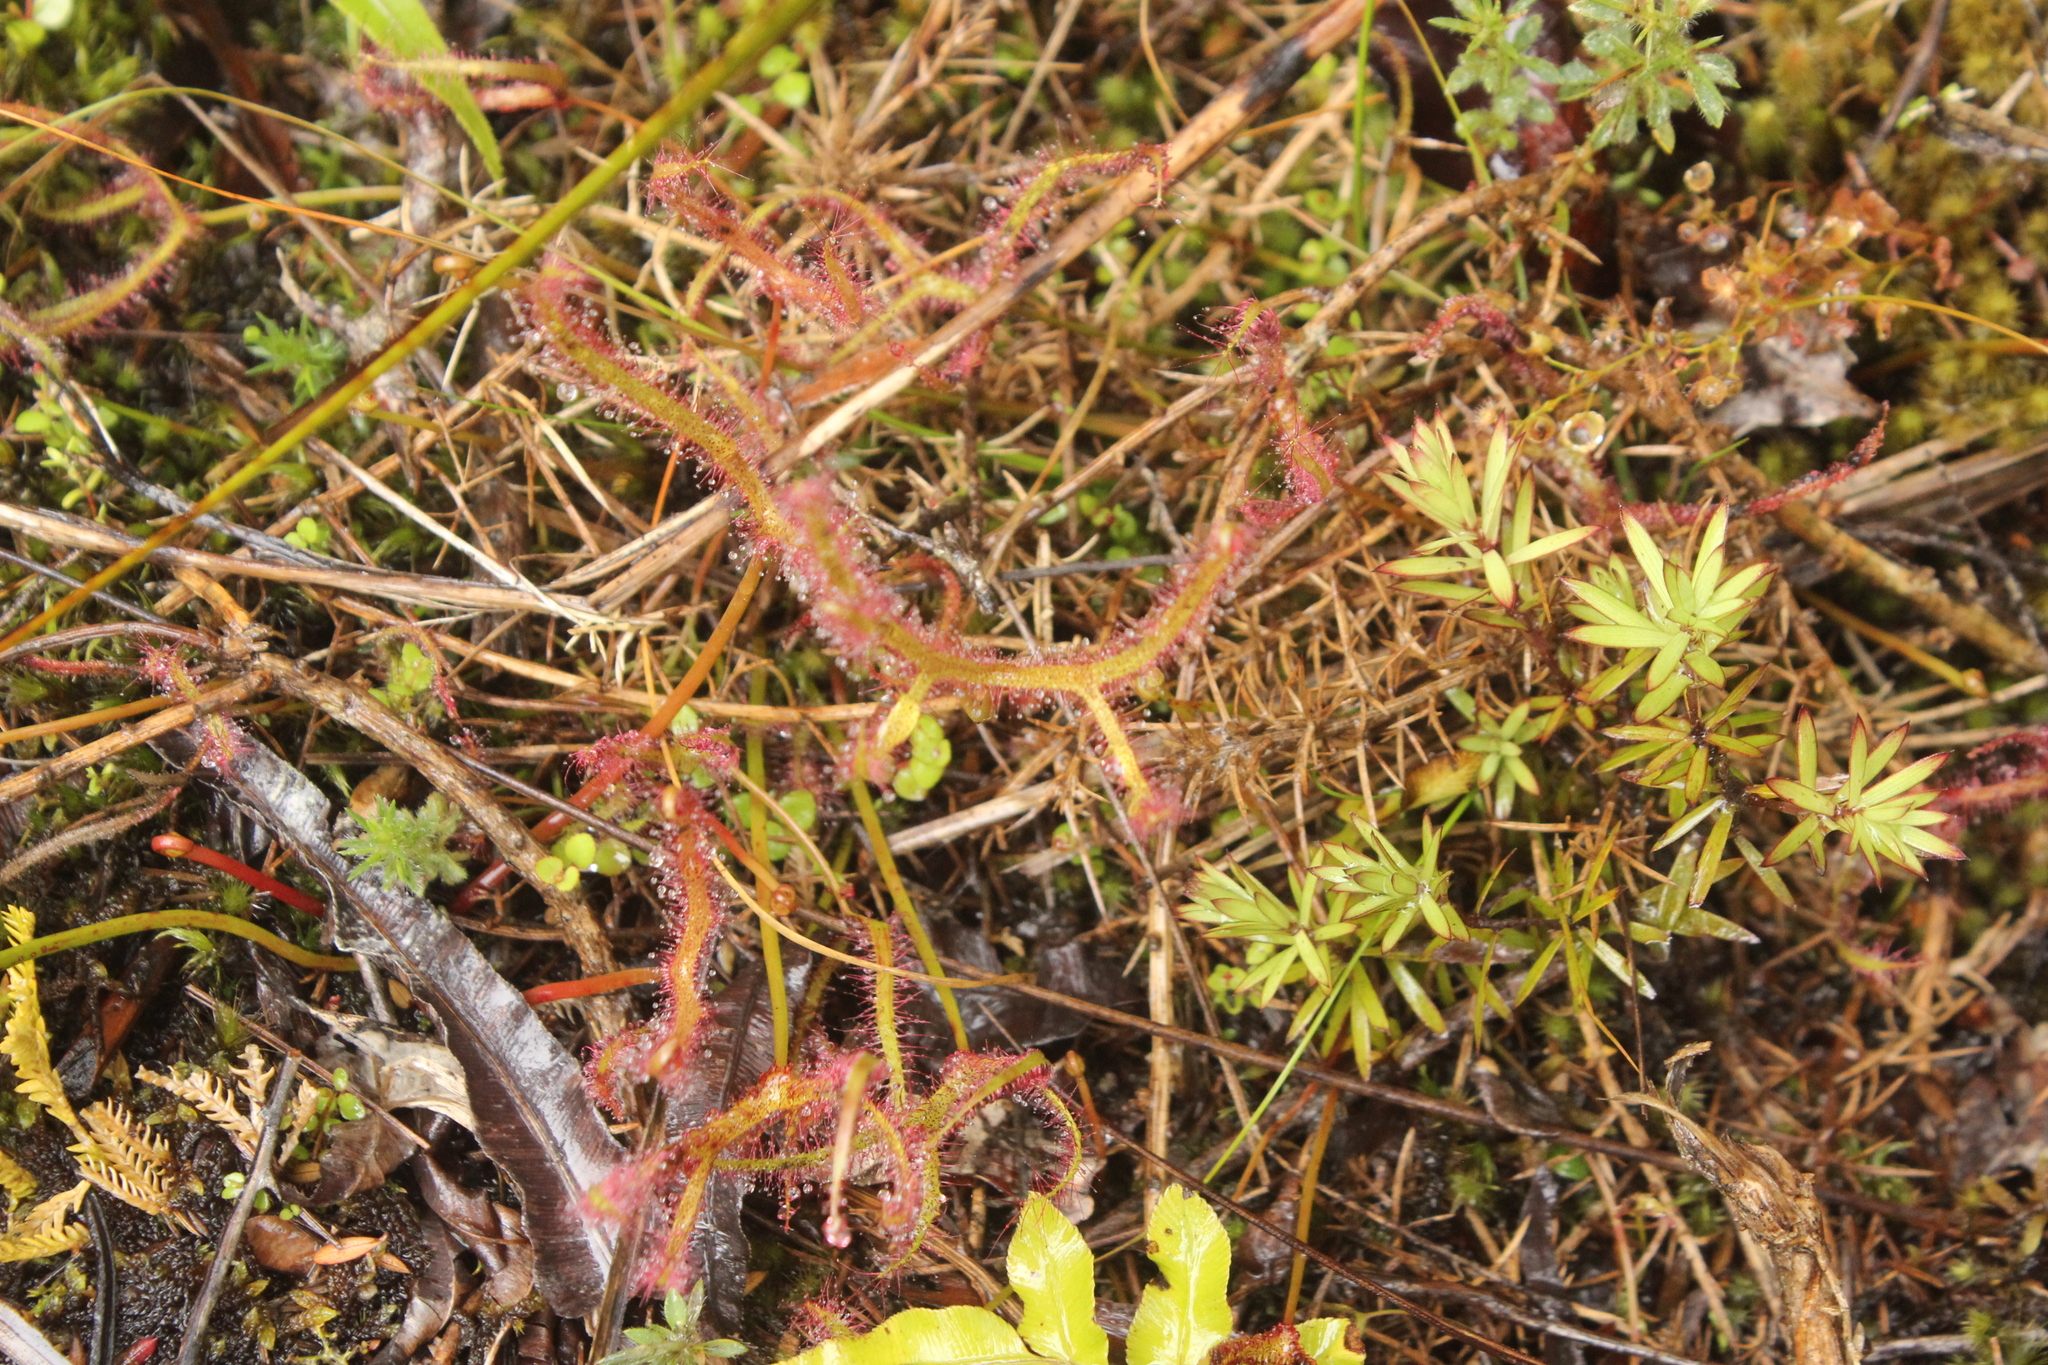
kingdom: Plantae
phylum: Tracheophyta
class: Magnoliopsida
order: Caryophyllales
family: Droseraceae
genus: Drosera
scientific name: Drosera binata
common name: Forked sundew
